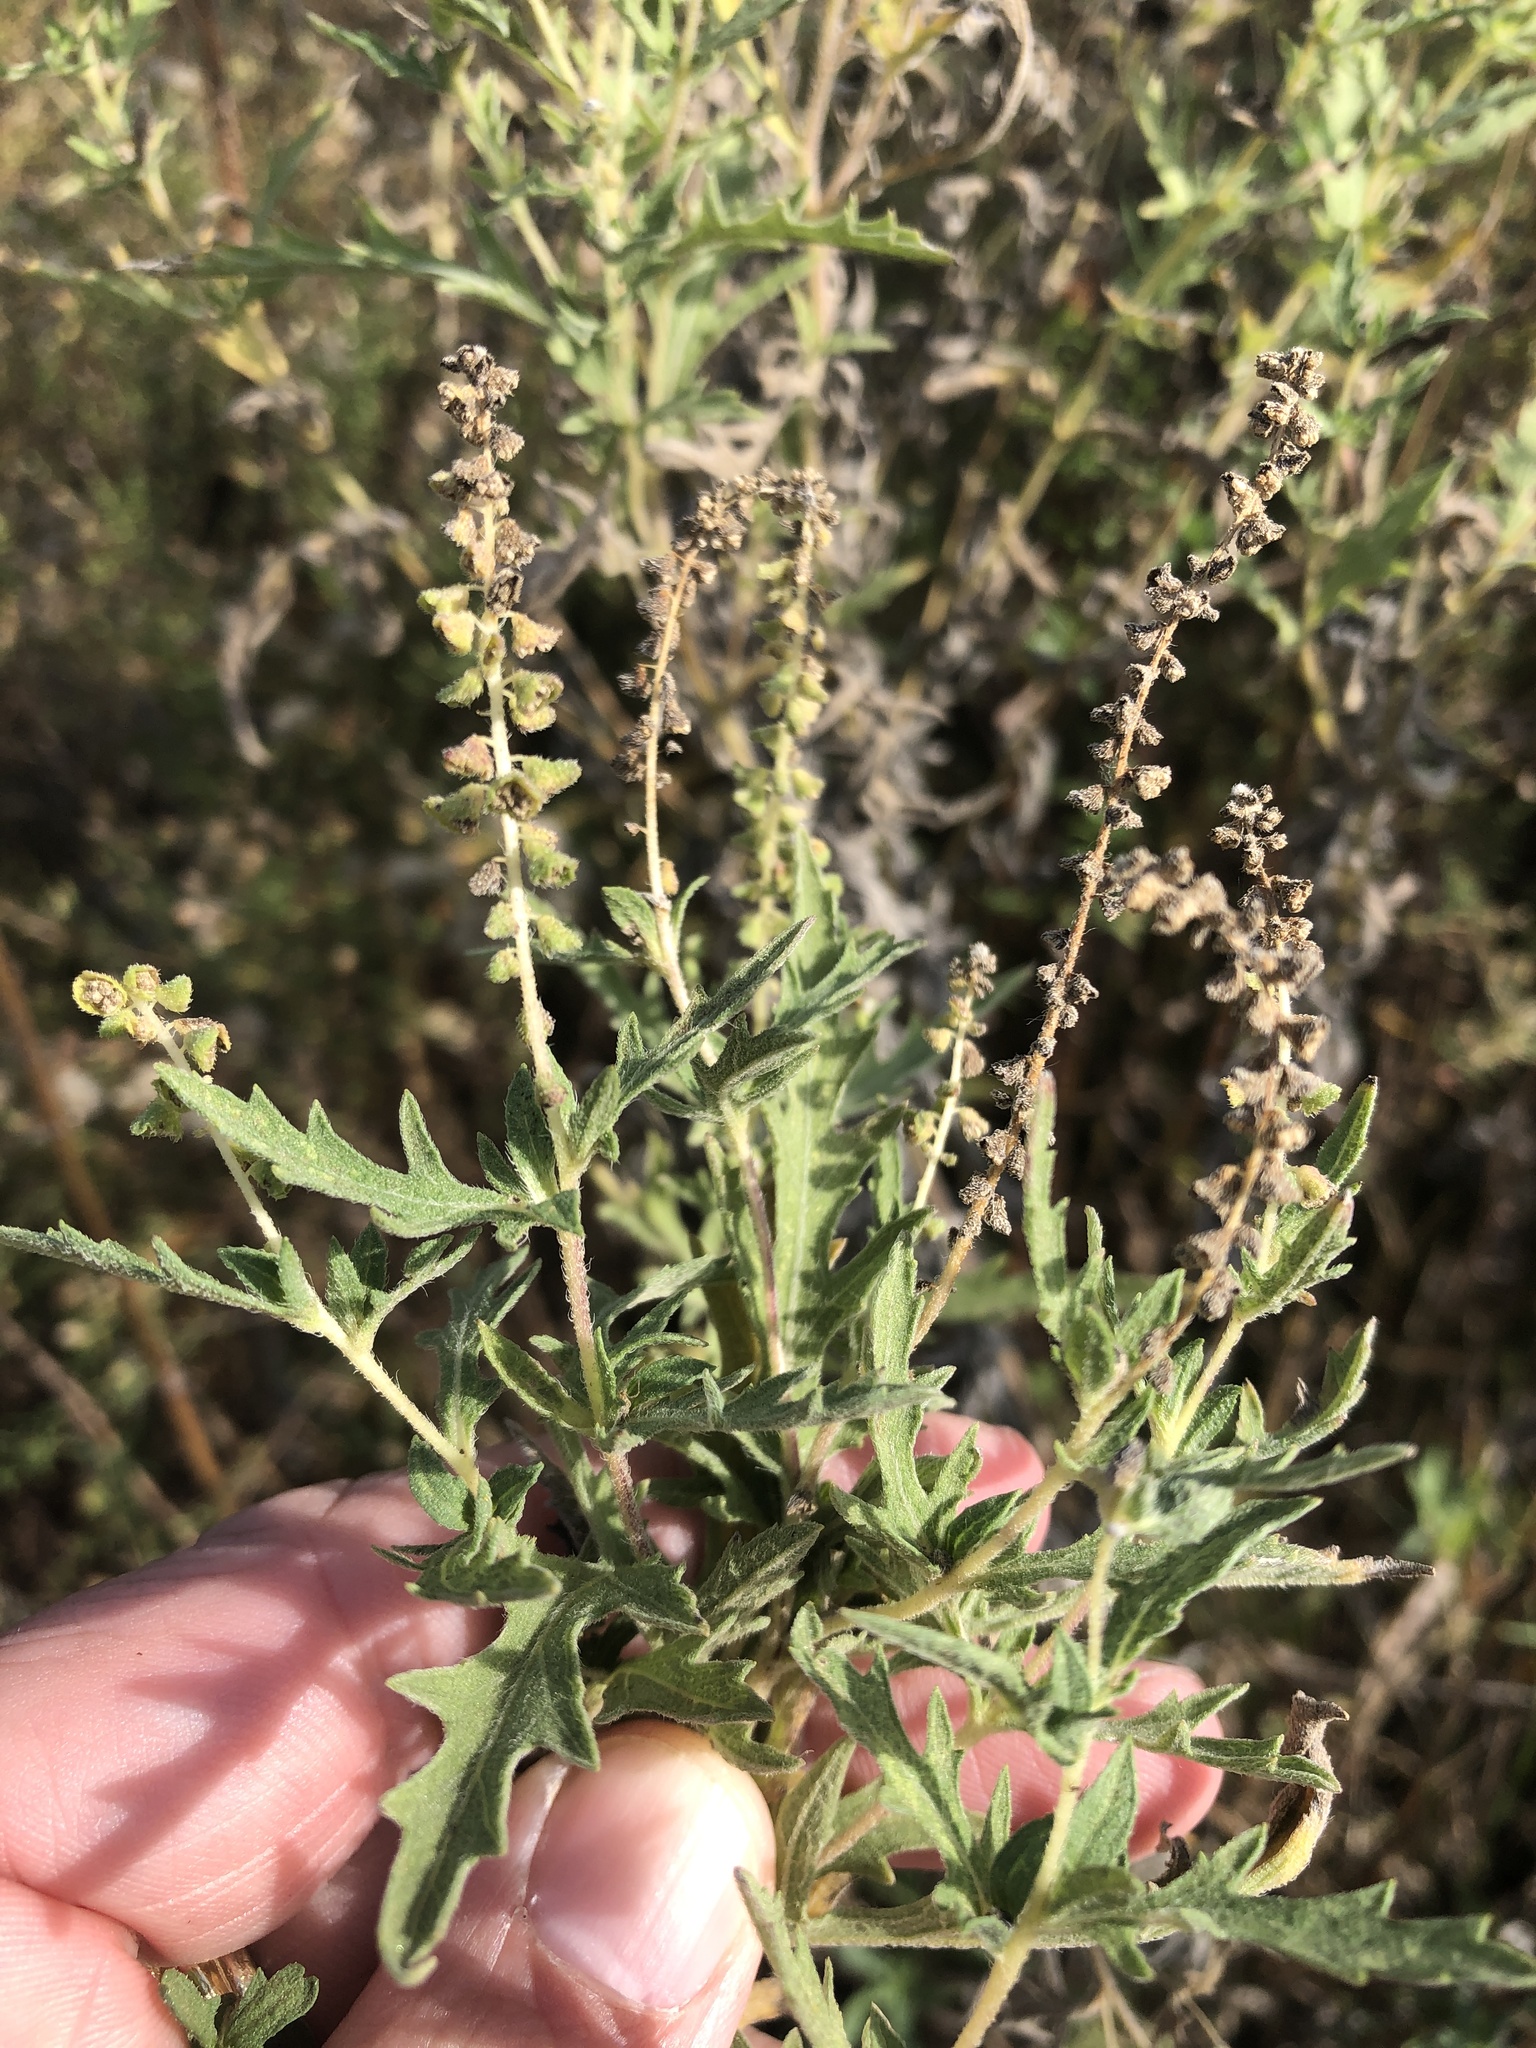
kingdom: Plantae
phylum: Tracheophyta
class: Magnoliopsida
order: Asterales
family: Asteraceae
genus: Ambrosia
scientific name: Ambrosia psilostachya
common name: Perennial ragweed
